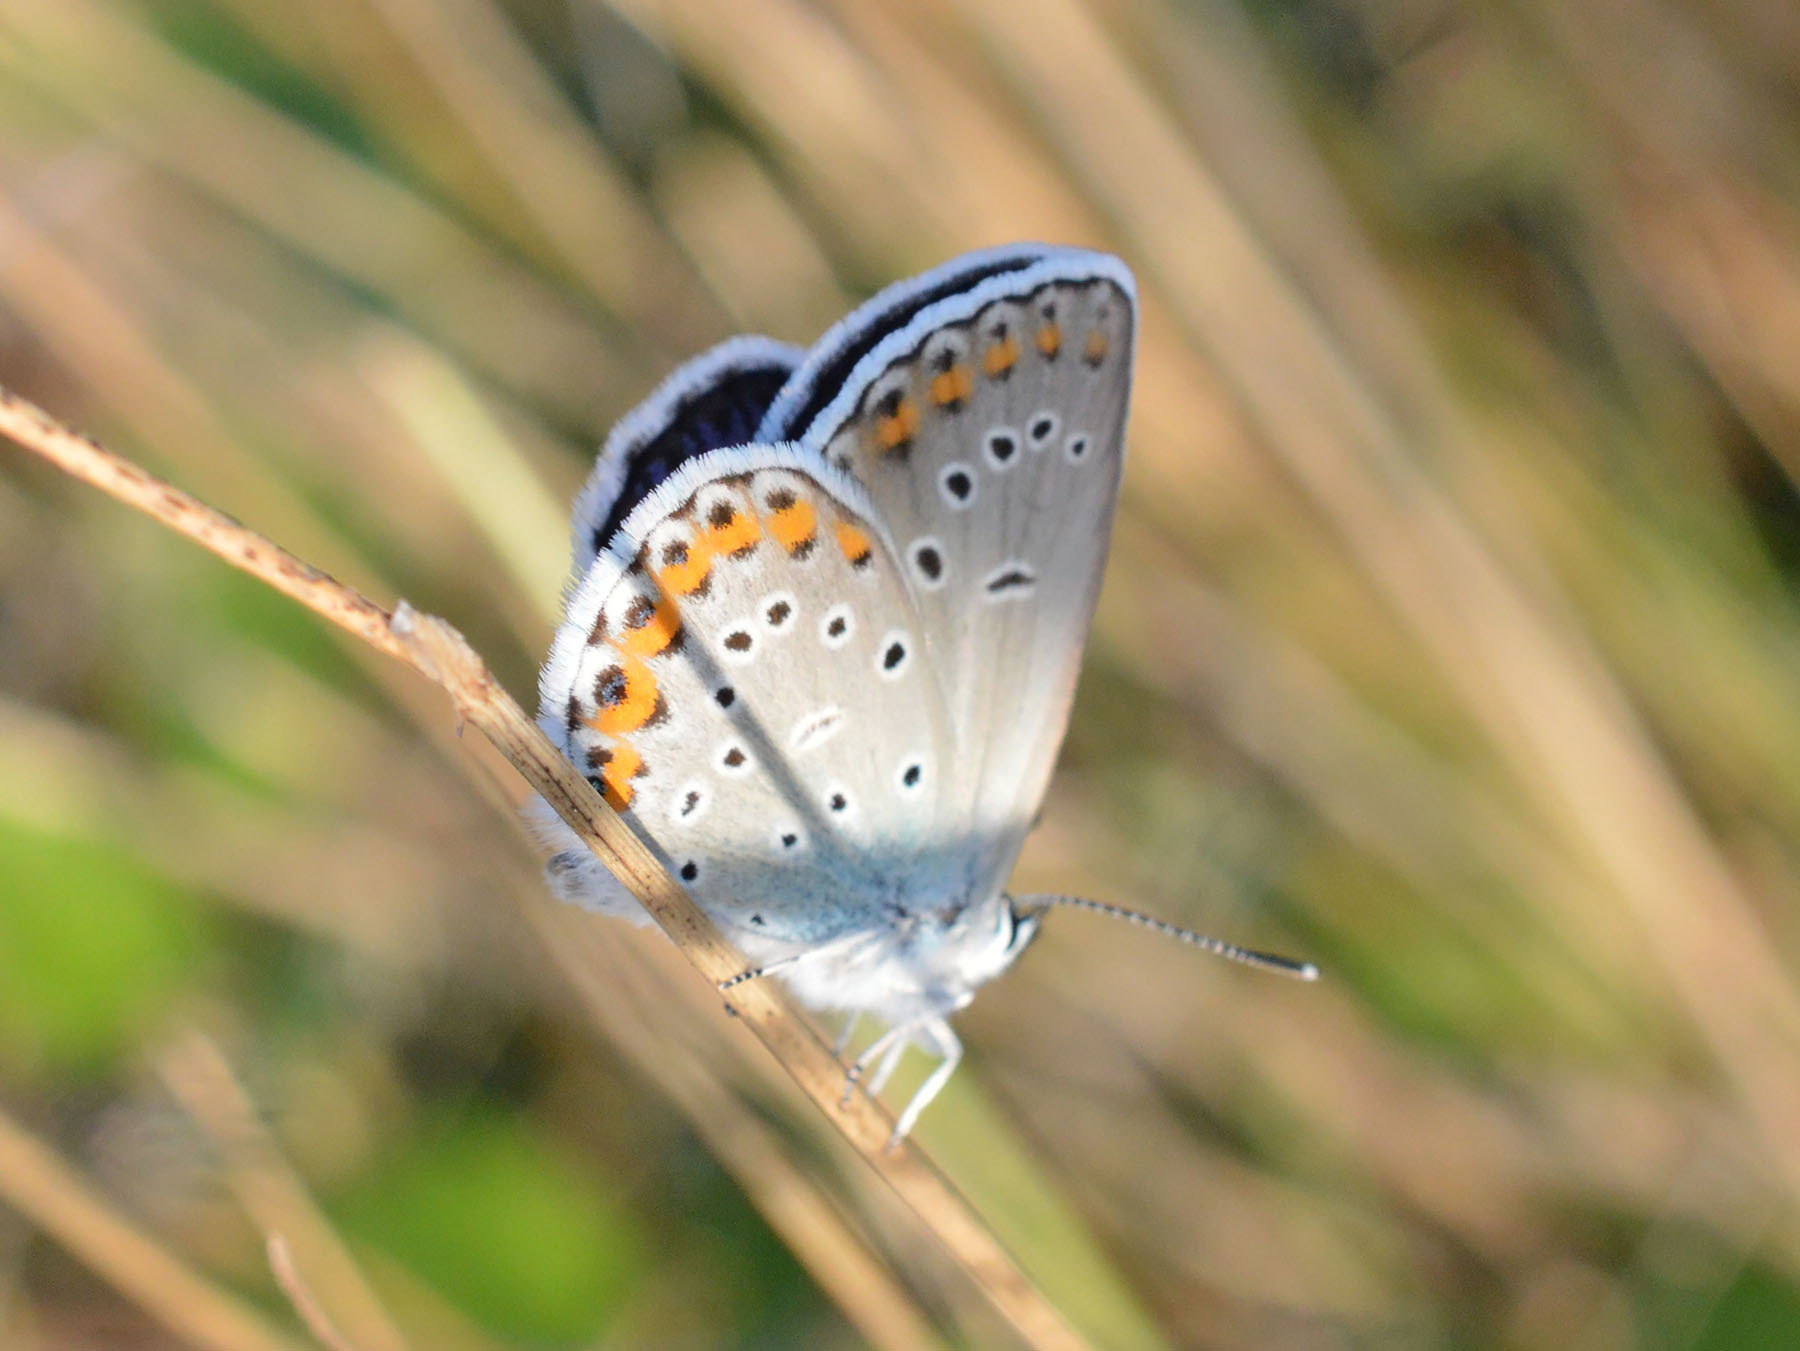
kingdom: Animalia
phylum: Arthropoda
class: Insecta
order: Lepidoptera
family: Lycaenidae
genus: Plebejus
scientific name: Plebejus argyrognomon
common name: Reverdin's blue
